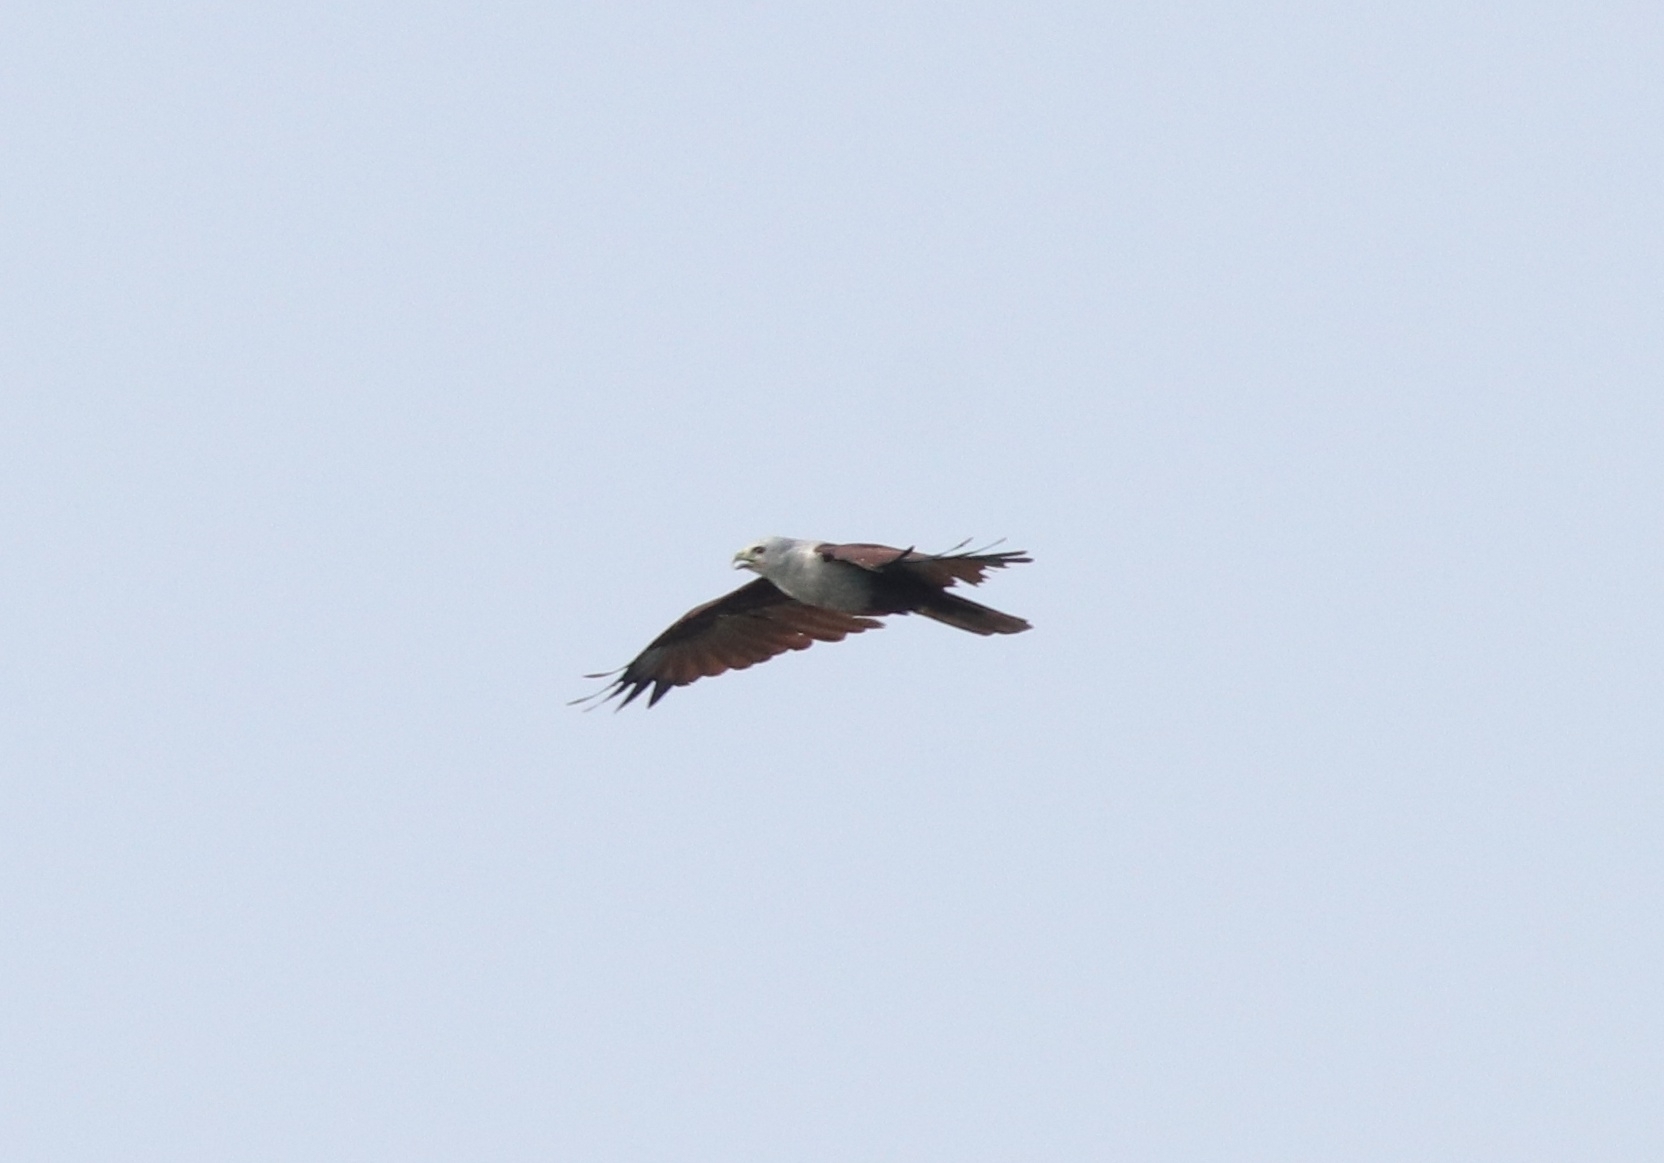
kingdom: Animalia
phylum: Chordata
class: Aves
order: Accipitriformes
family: Accipitridae
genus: Haliastur
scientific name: Haliastur indus
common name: Brahminy kite
